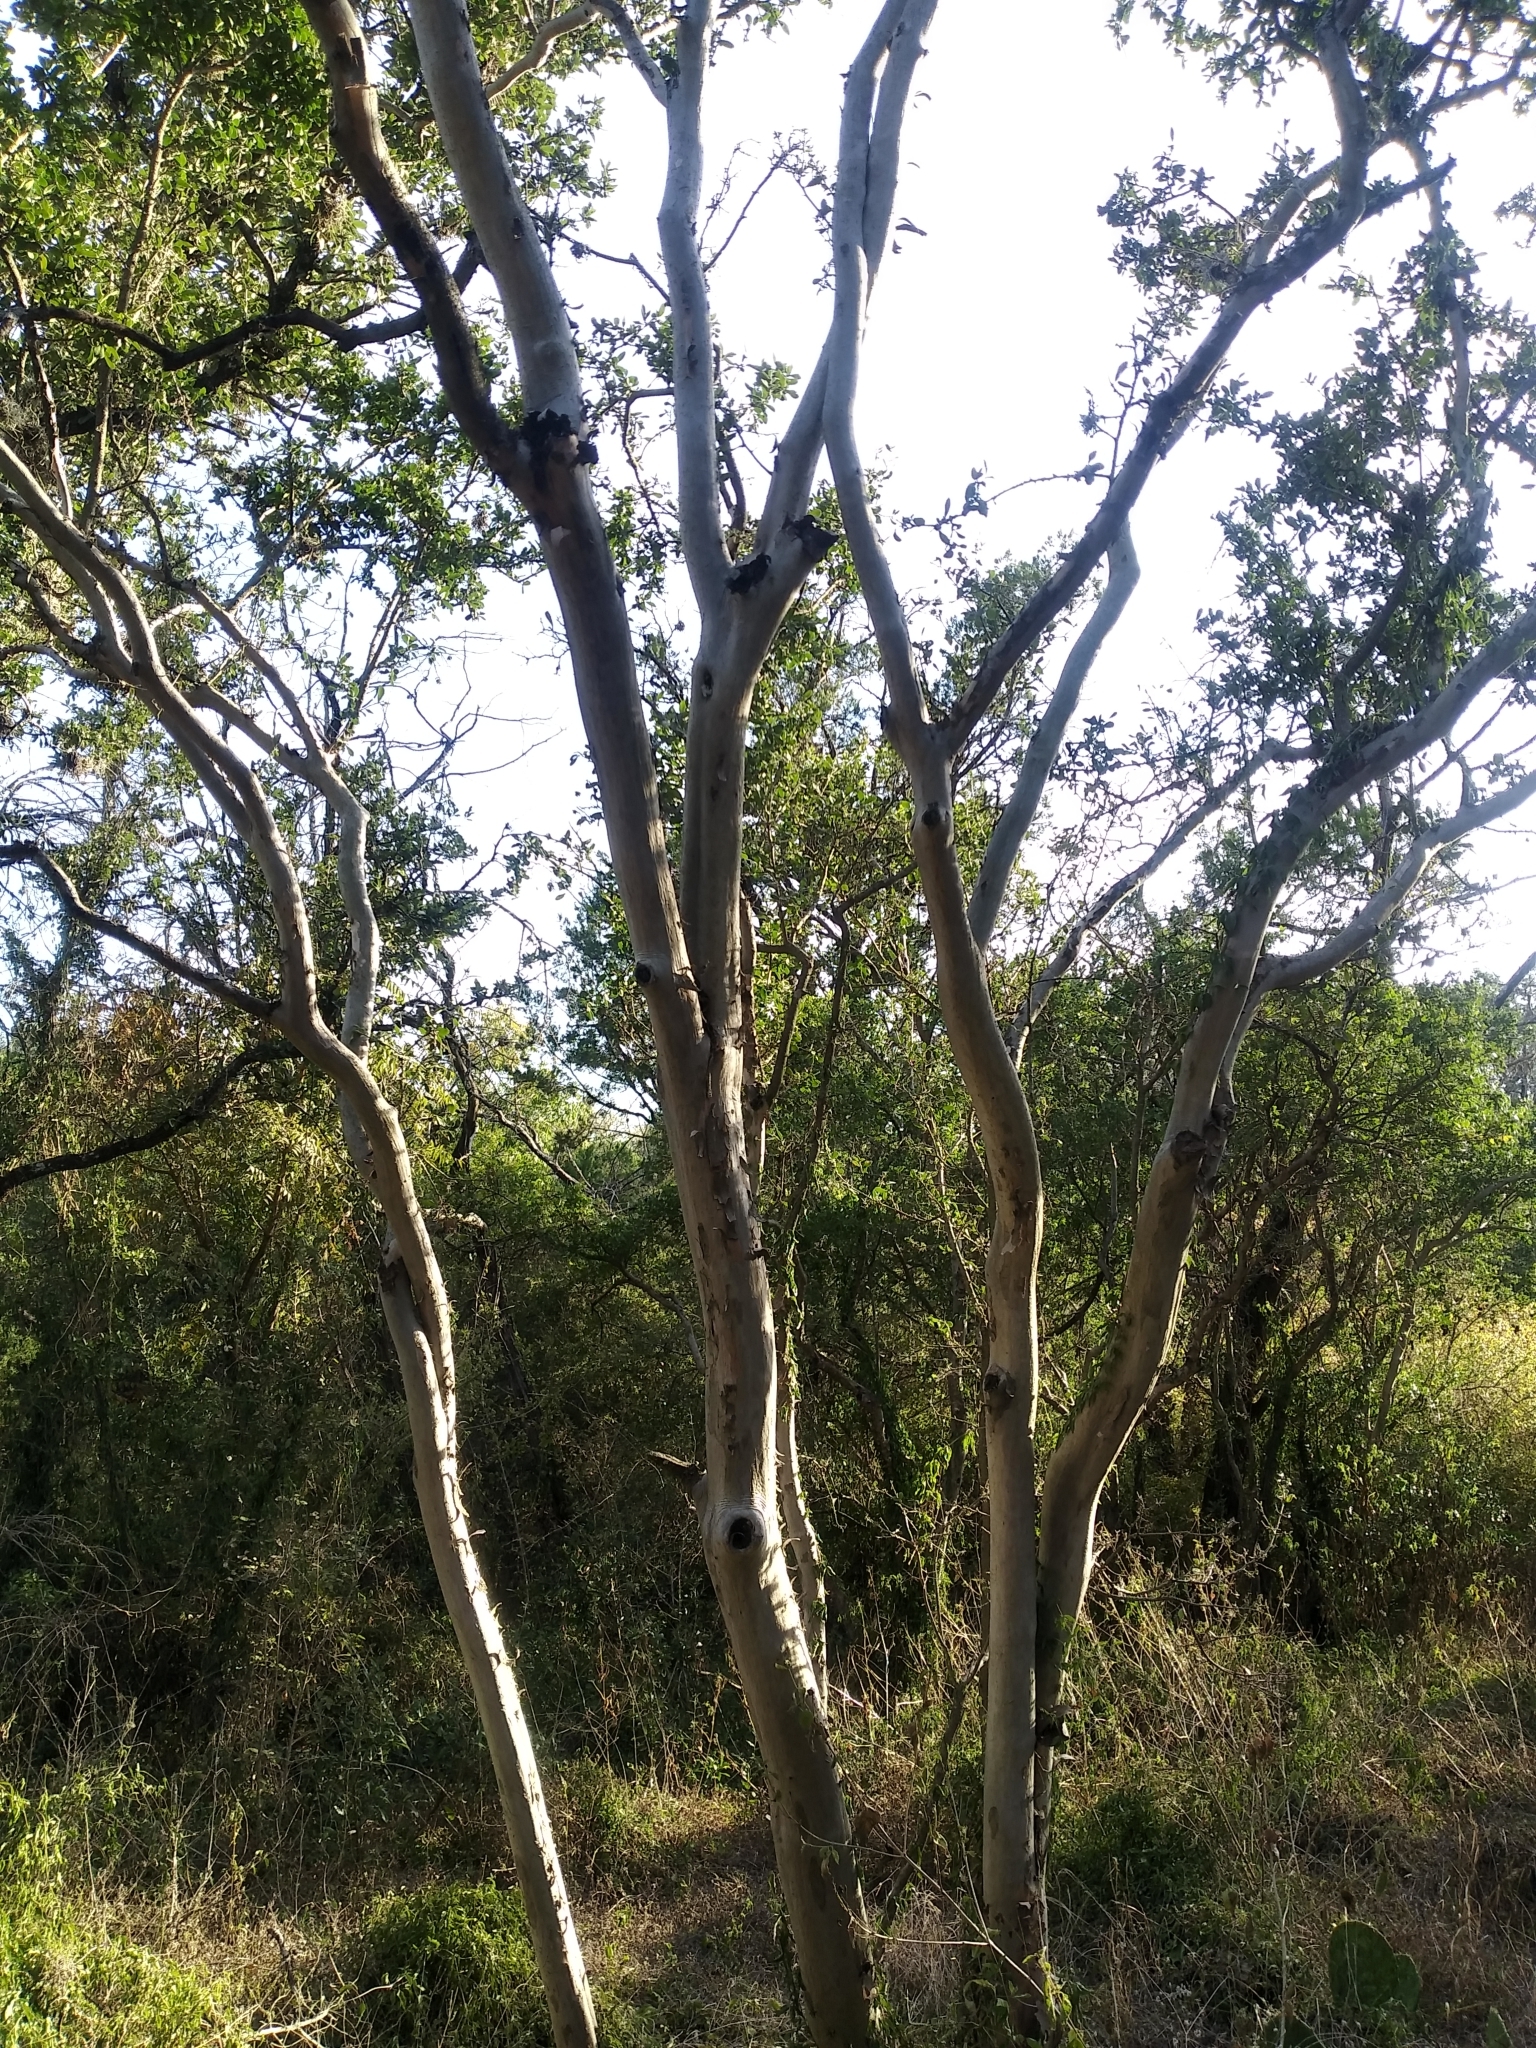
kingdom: Plantae
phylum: Tracheophyta
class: Magnoliopsida
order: Ericales
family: Ebenaceae
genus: Diospyros
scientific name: Diospyros texana
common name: Texas persimmon
